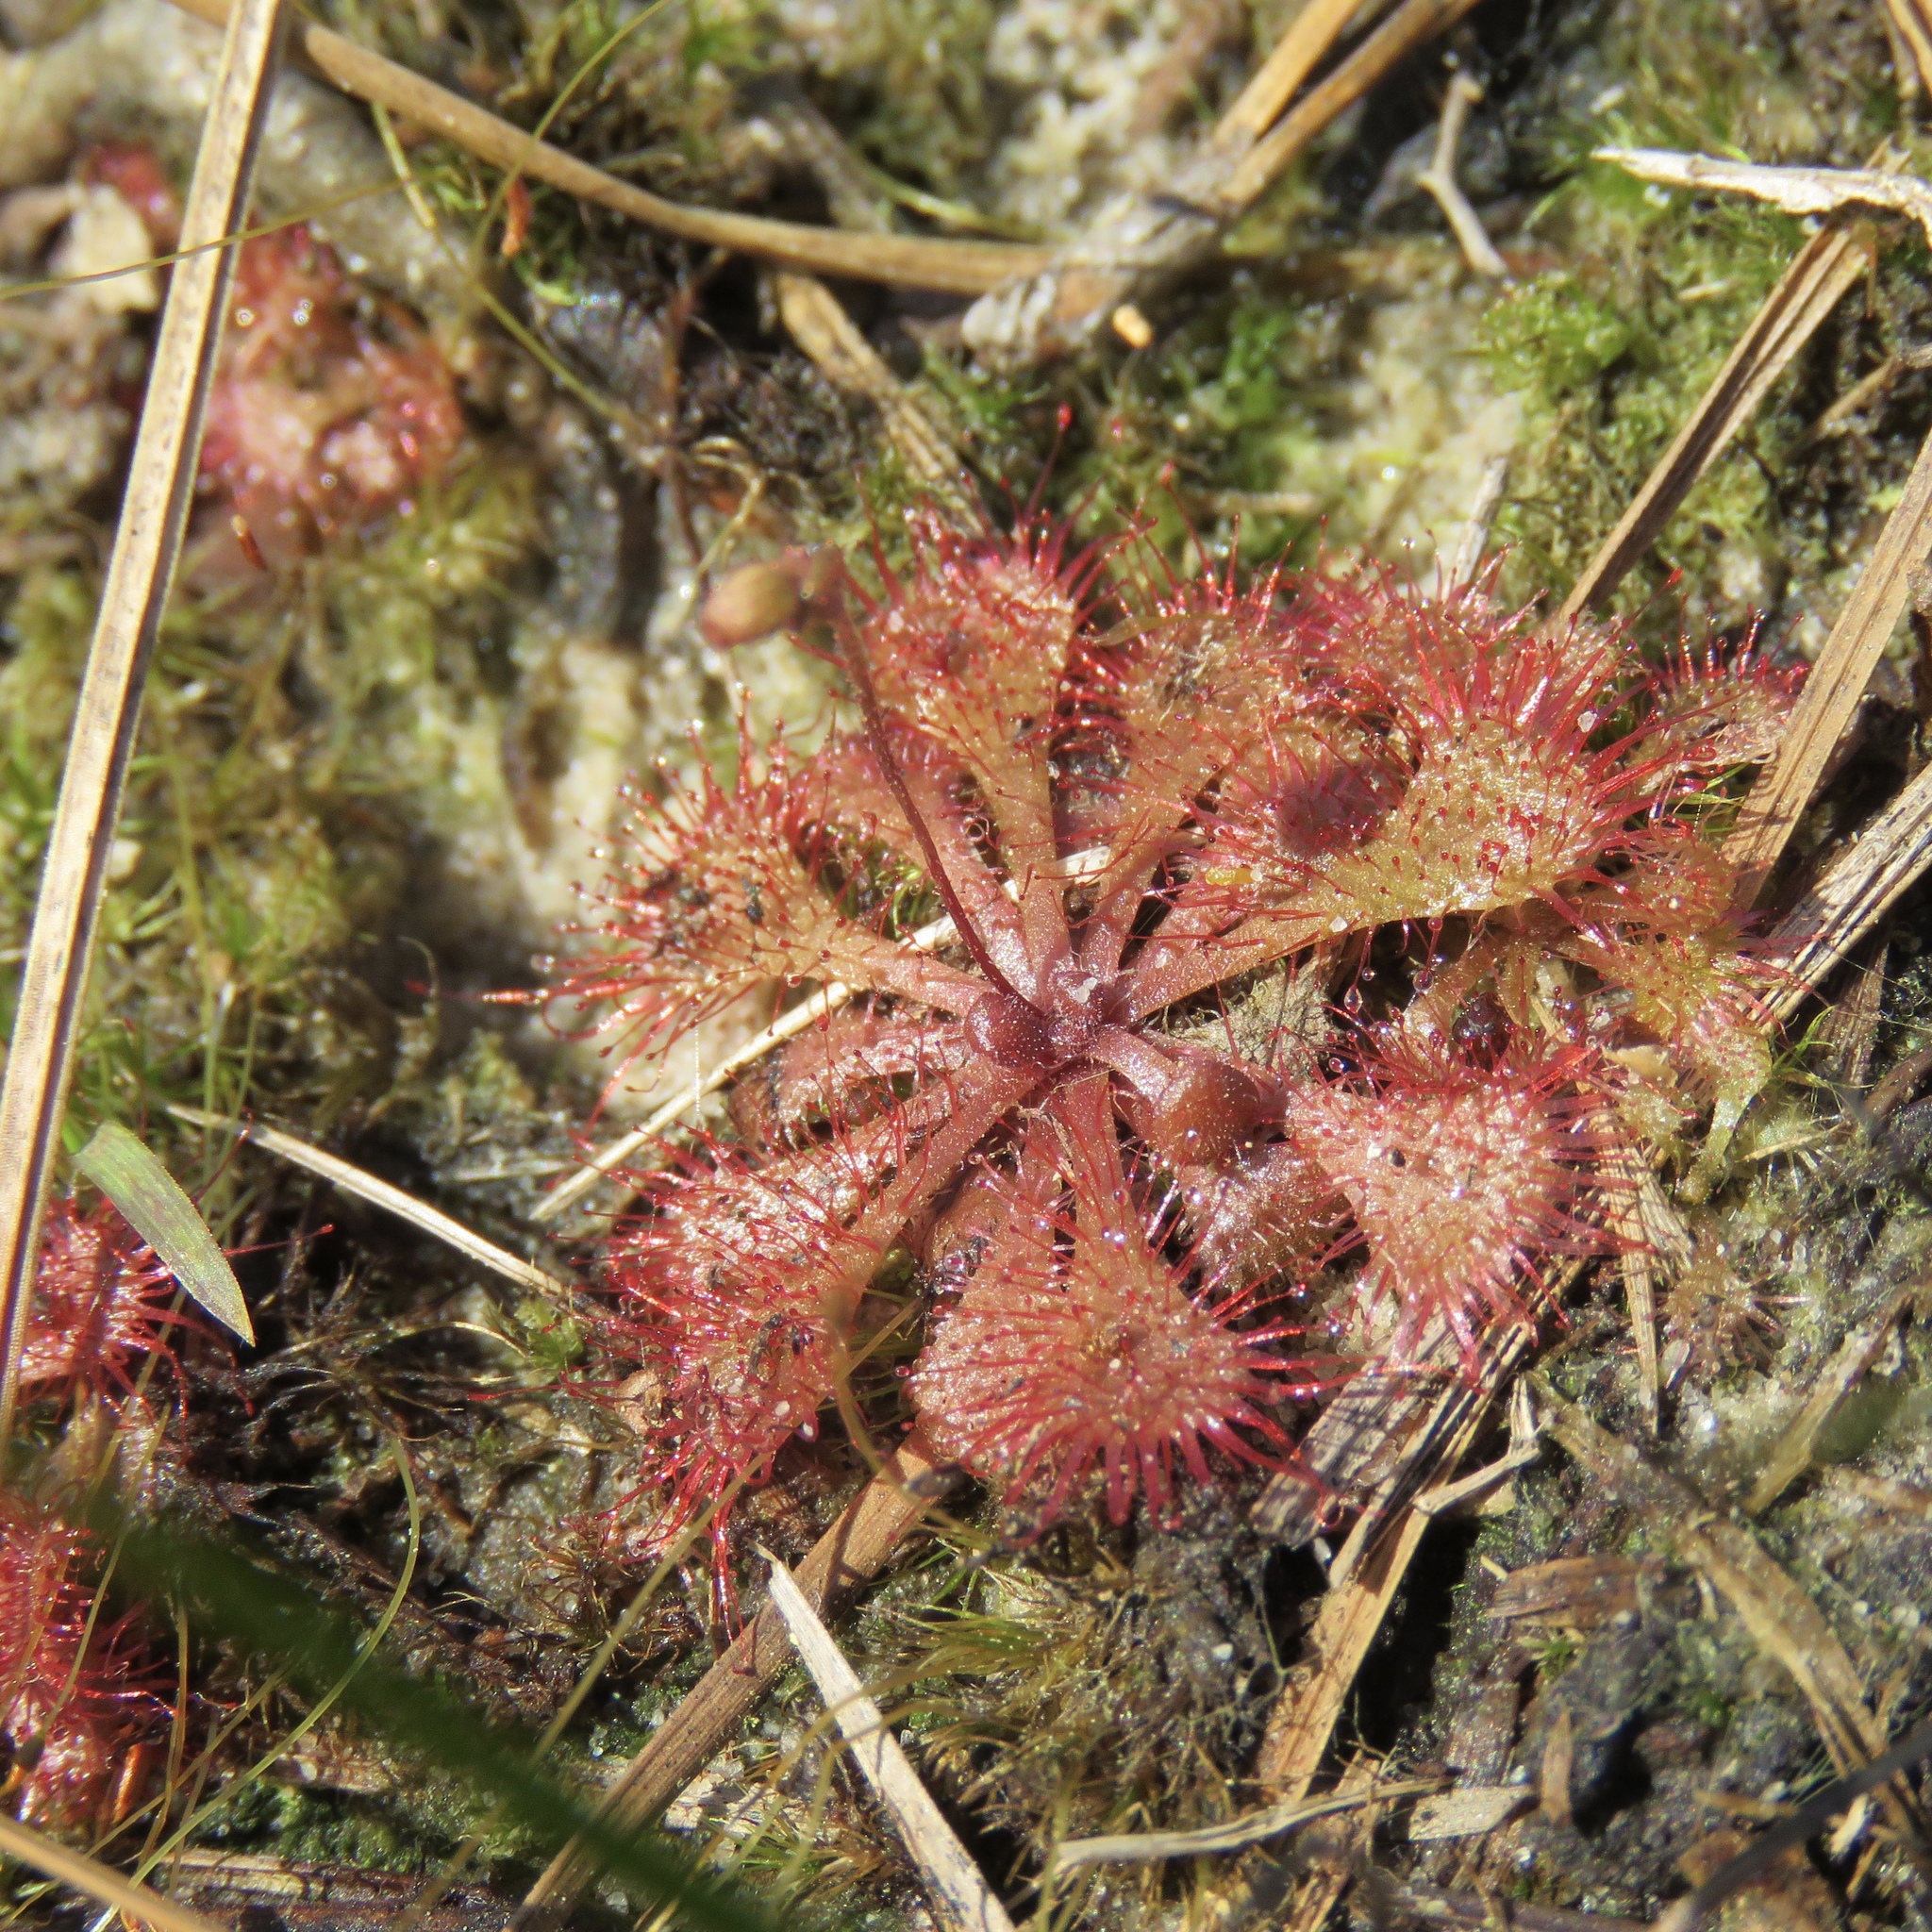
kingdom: Plantae
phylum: Tracheophyta
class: Magnoliopsida
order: Caryophyllales
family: Droseraceae
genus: Drosera
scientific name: Drosera brevifolia
